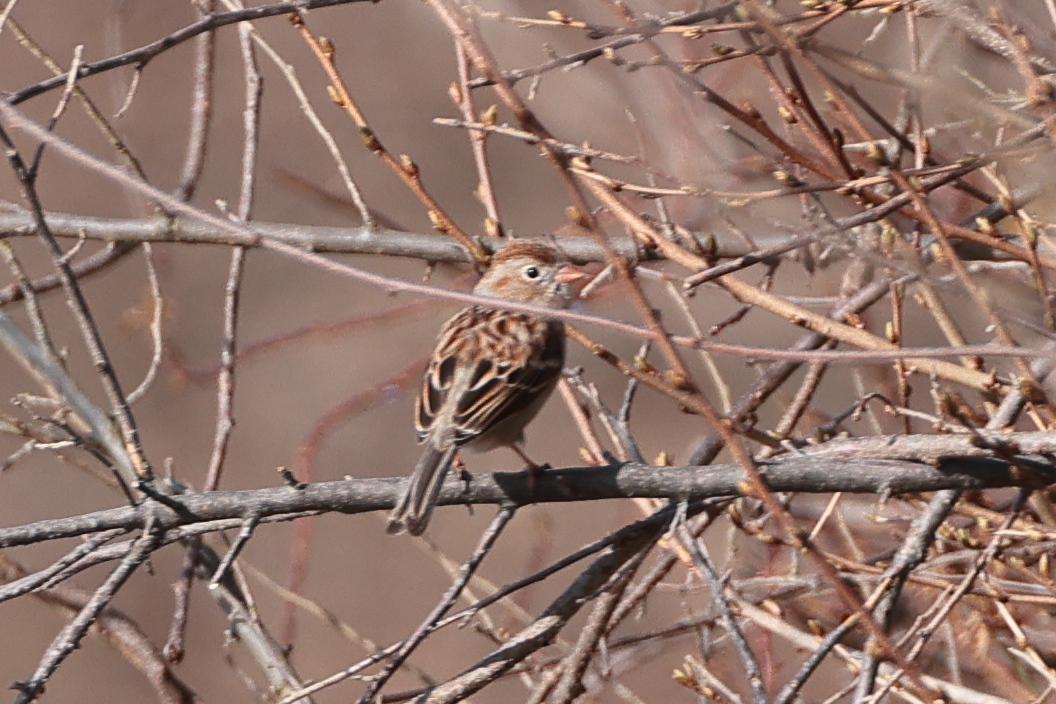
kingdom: Animalia
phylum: Chordata
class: Aves
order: Passeriformes
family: Passerellidae
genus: Spizella
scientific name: Spizella pusilla
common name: Field sparrow
